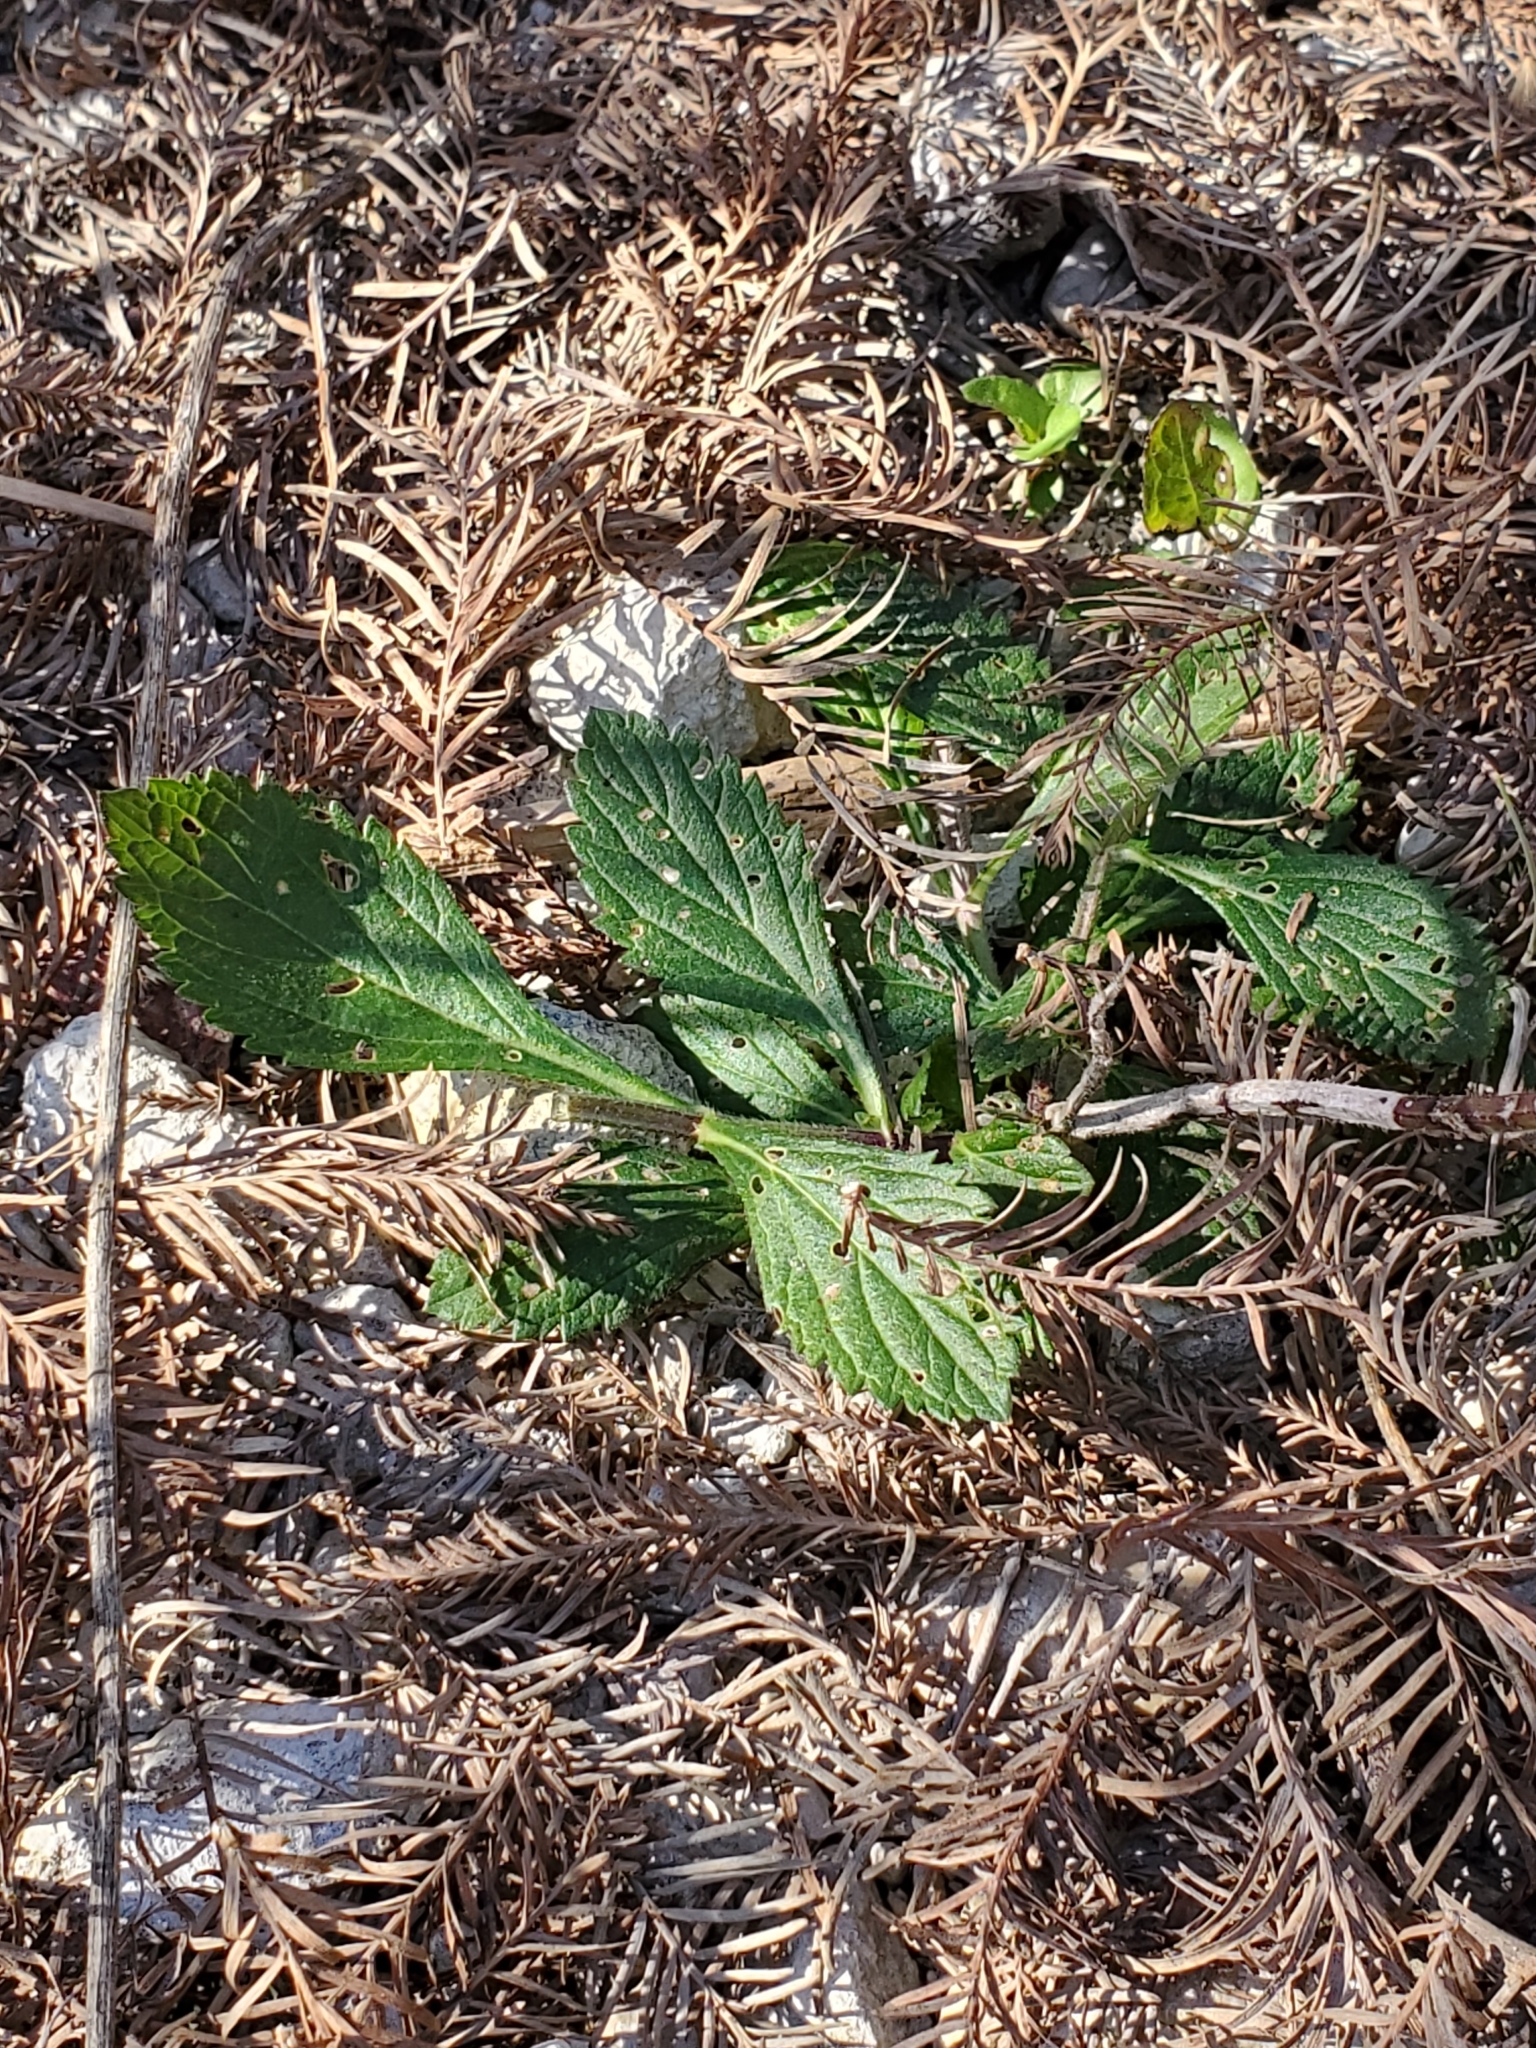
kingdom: Plantae
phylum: Tracheophyta
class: Magnoliopsida
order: Lamiales
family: Verbenaceae
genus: Verbena
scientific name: Verbena brasiliensis
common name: Brazilian vervain
